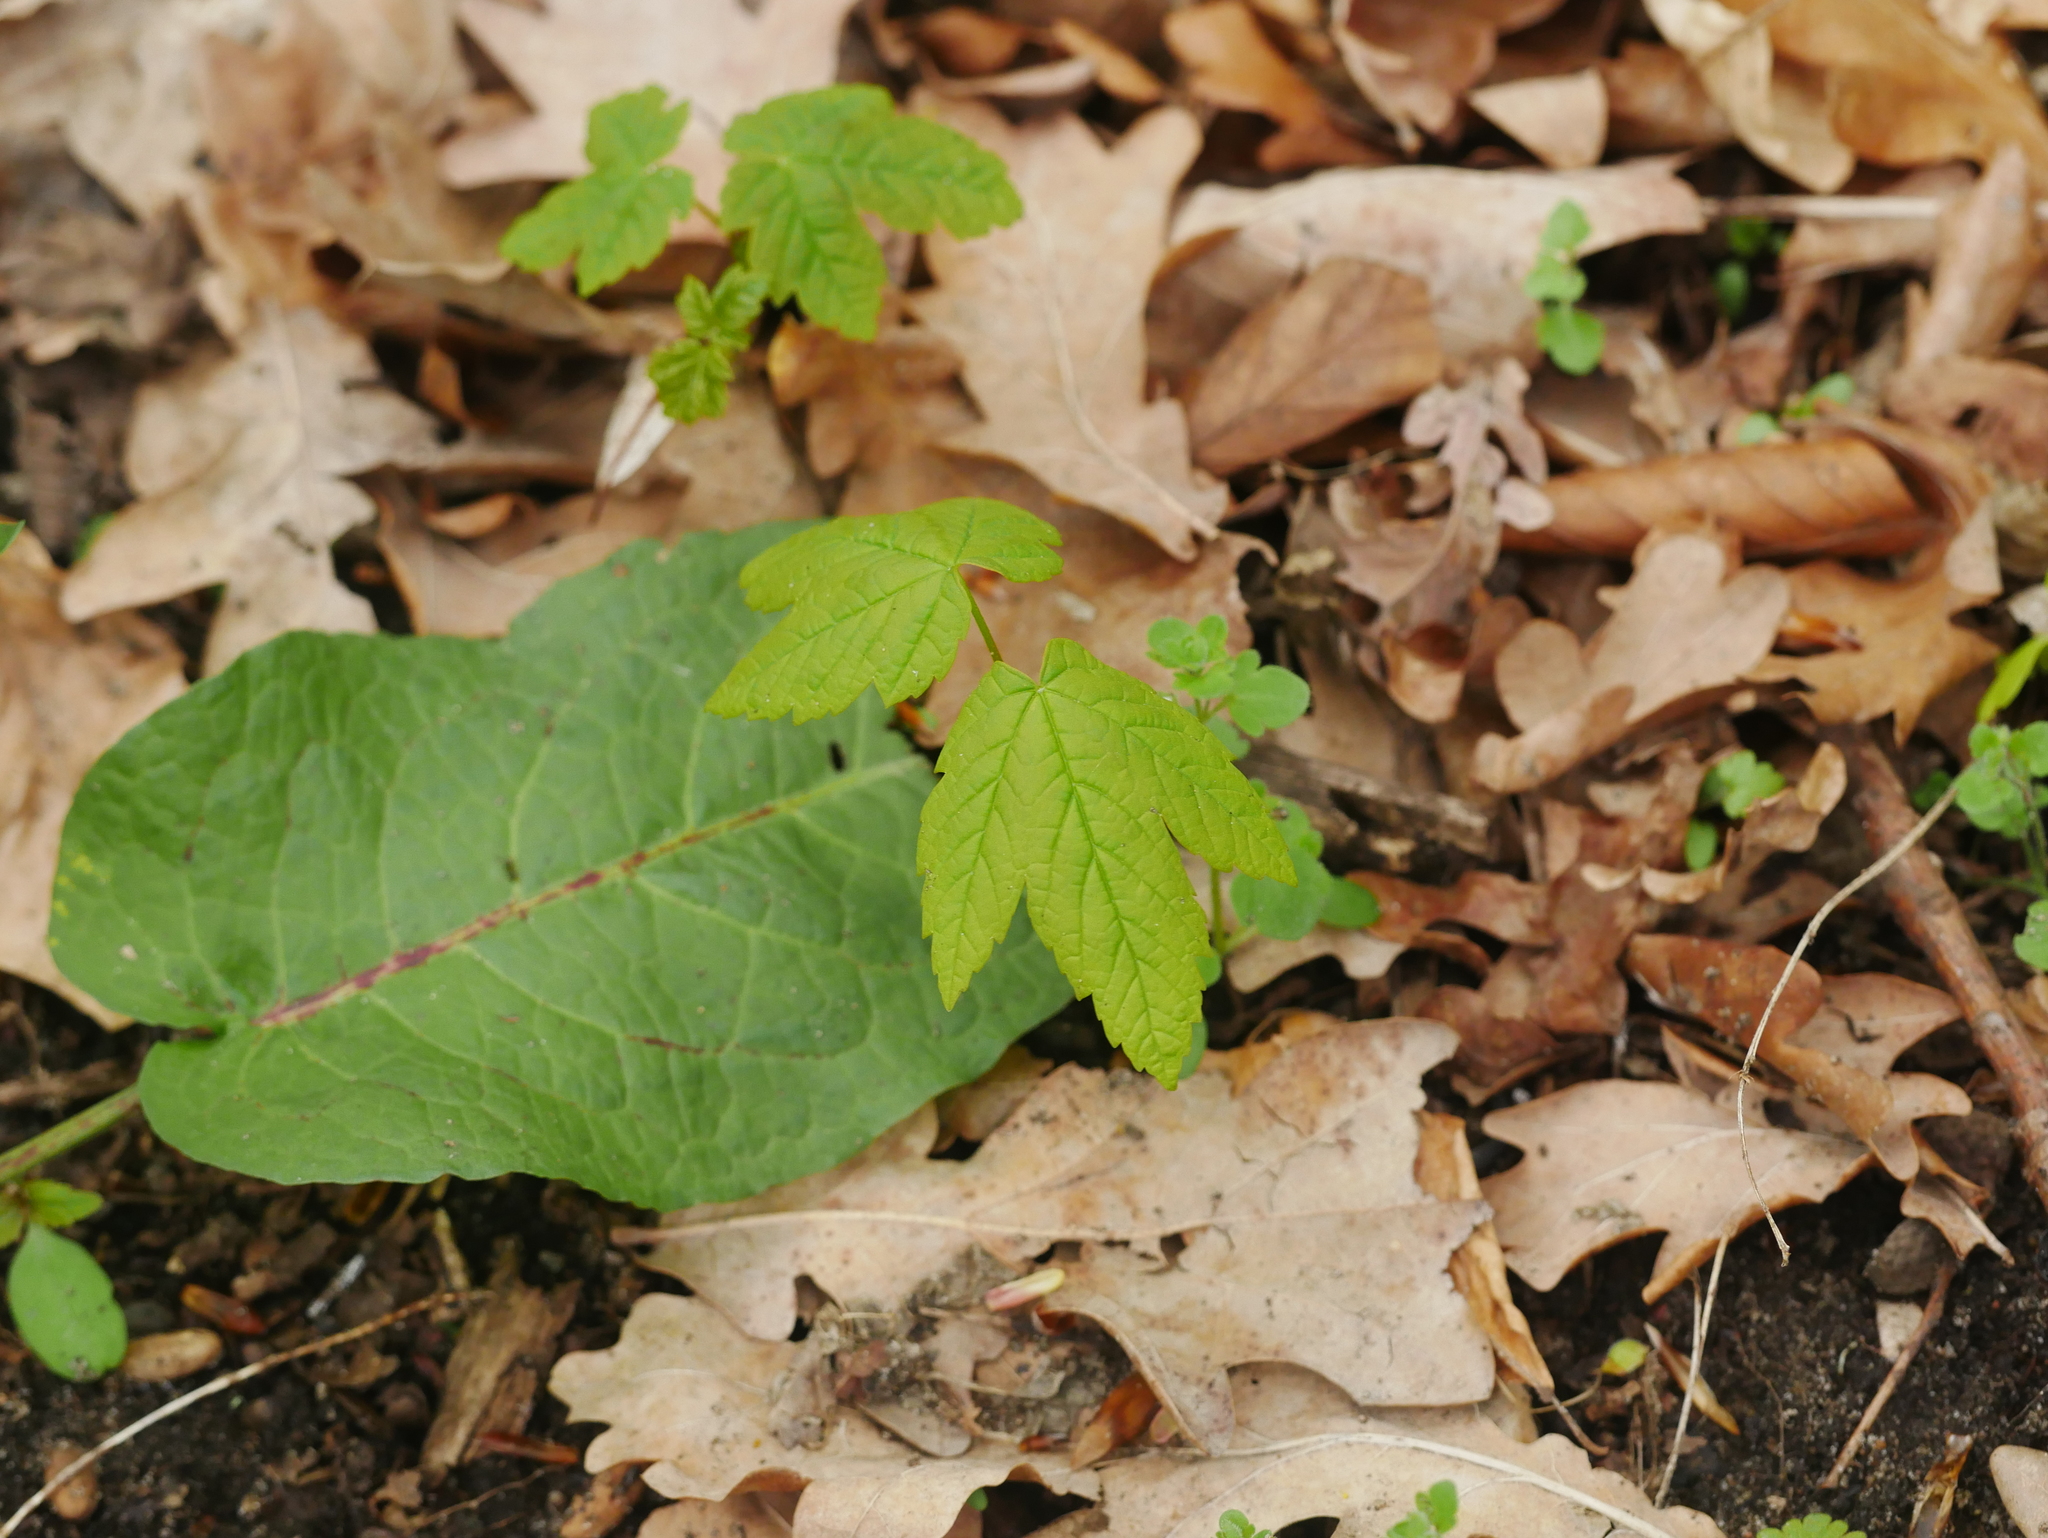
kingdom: Plantae
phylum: Tracheophyta
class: Magnoliopsida
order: Sapindales
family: Sapindaceae
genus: Acer
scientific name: Acer pseudoplatanus
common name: Sycamore
